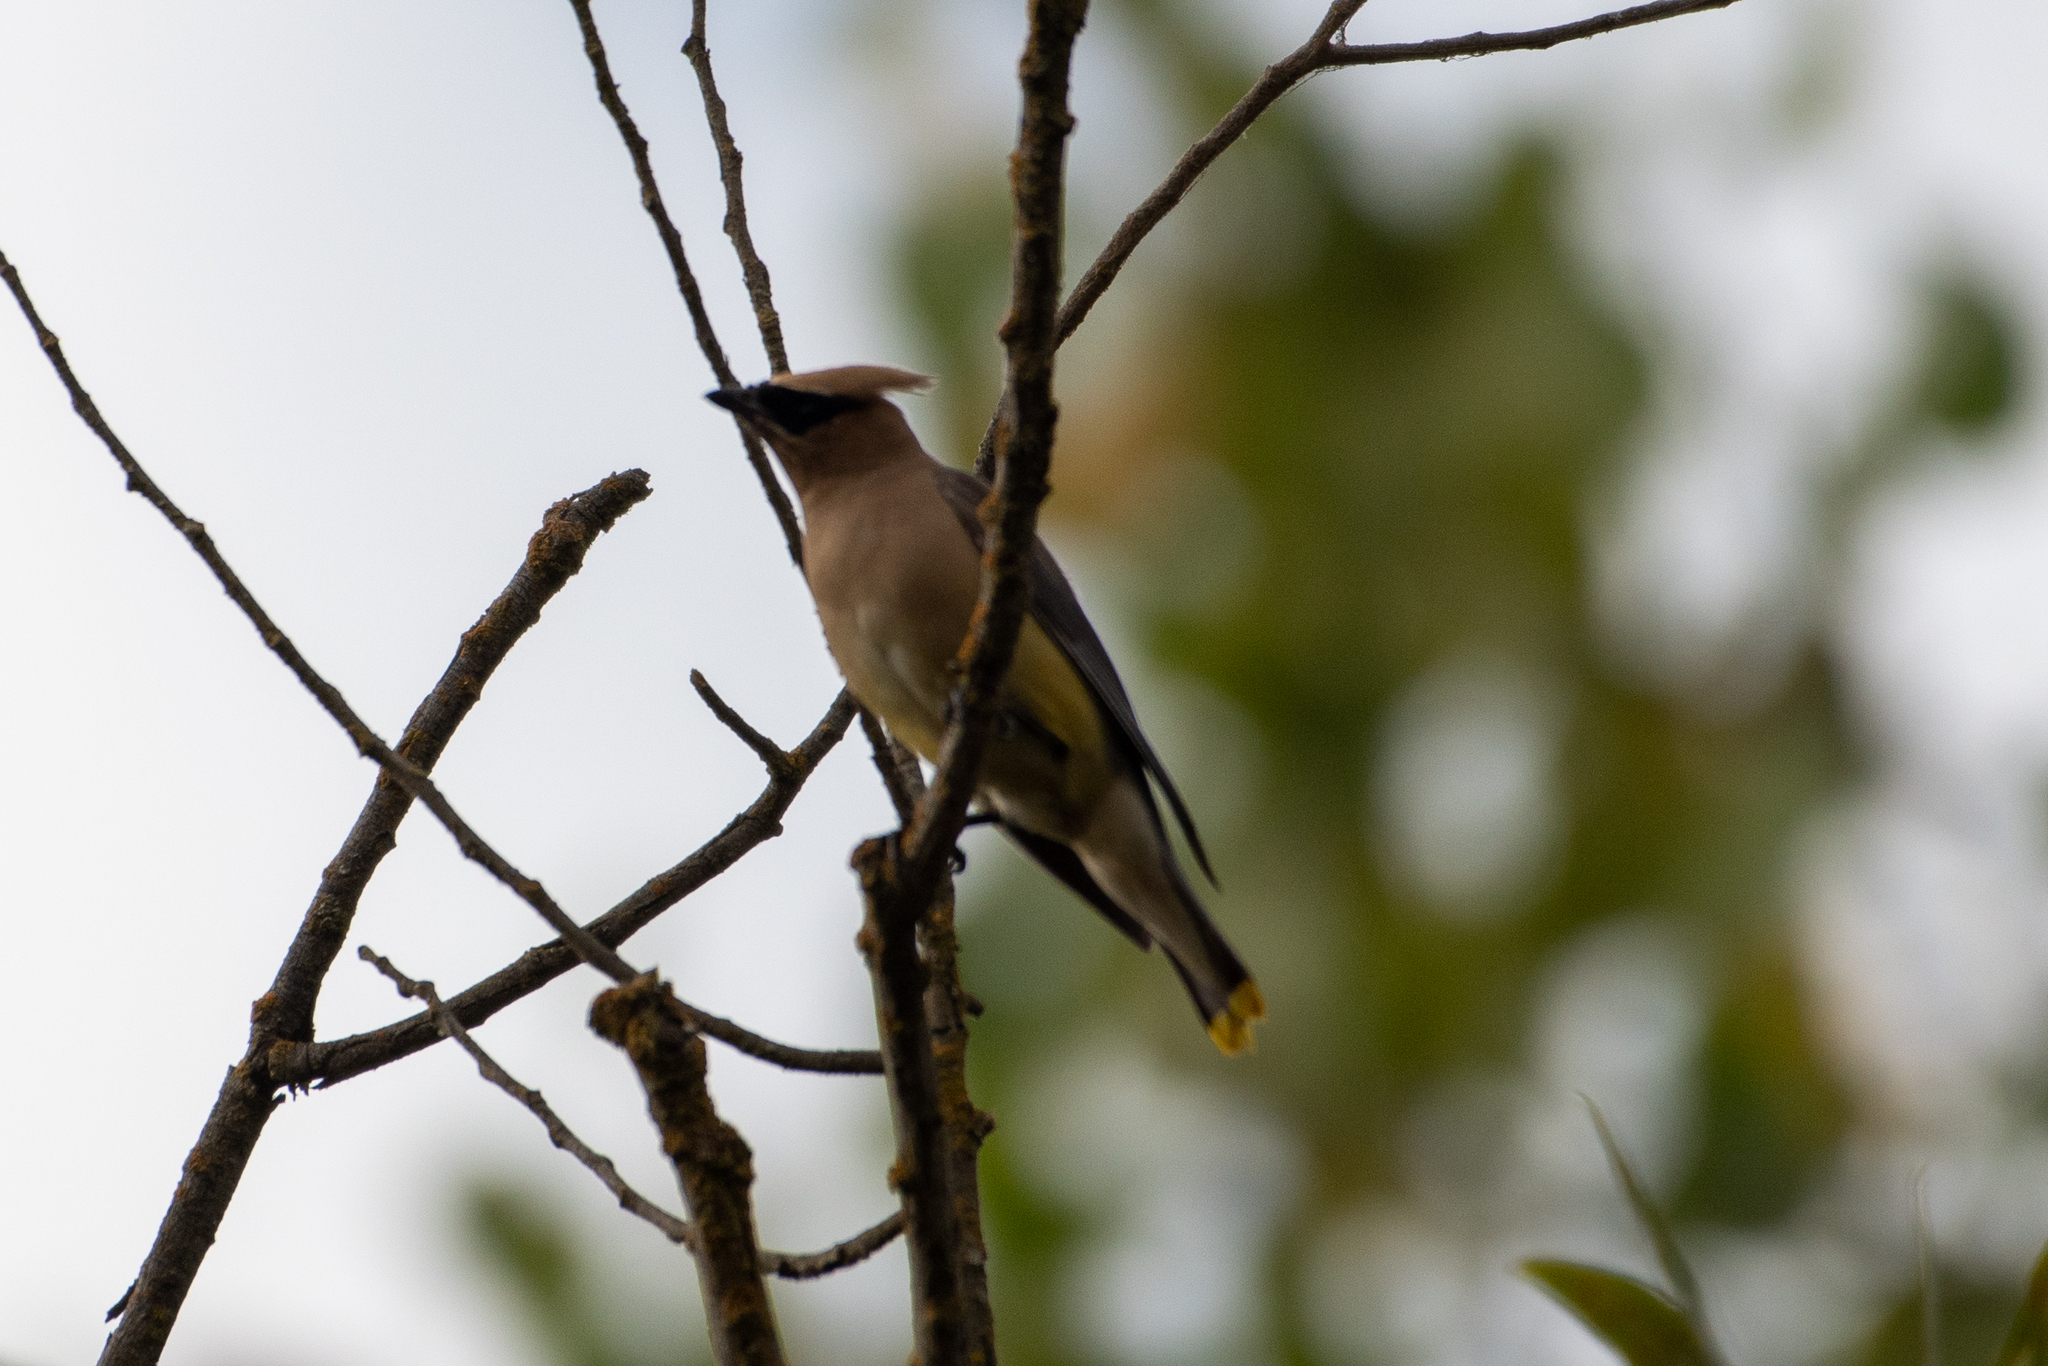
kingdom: Animalia
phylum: Chordata
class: Aves
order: Passeriformes
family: Bombycillidae
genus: Bombycilla
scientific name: Bombycilla cedrorum
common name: Cedar waxwing
